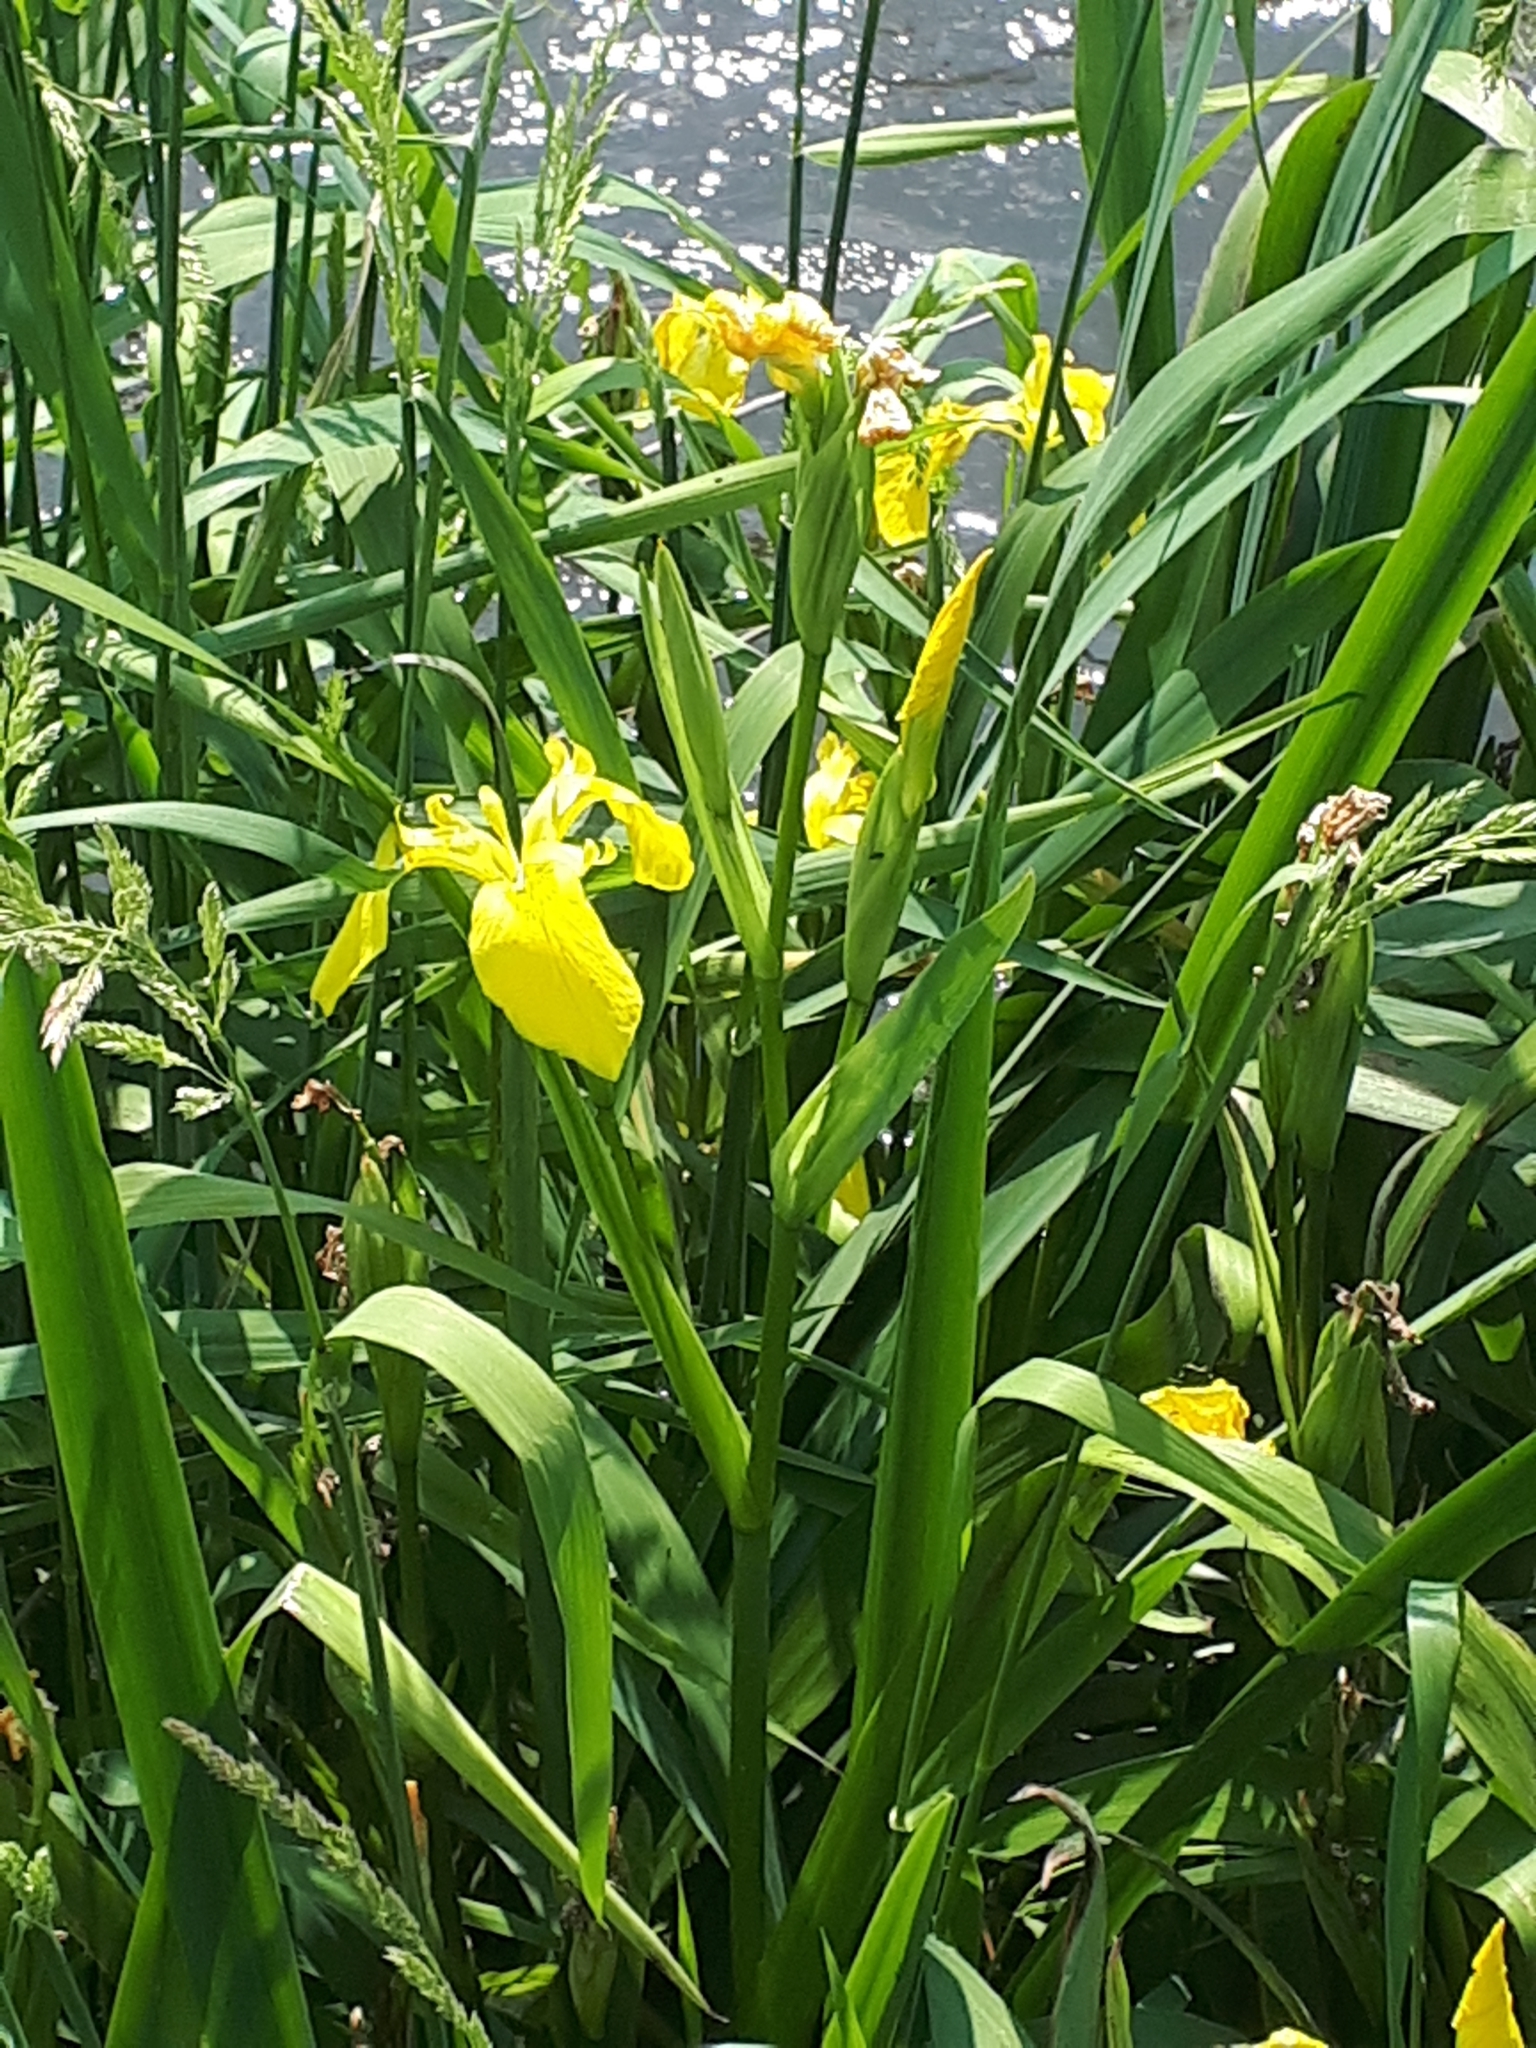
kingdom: Plantae
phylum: Tracheophyta
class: Liliopsida
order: Asparagales
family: Iridaceae
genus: Iris
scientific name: Iris pseudacorus
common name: Yellow flag
